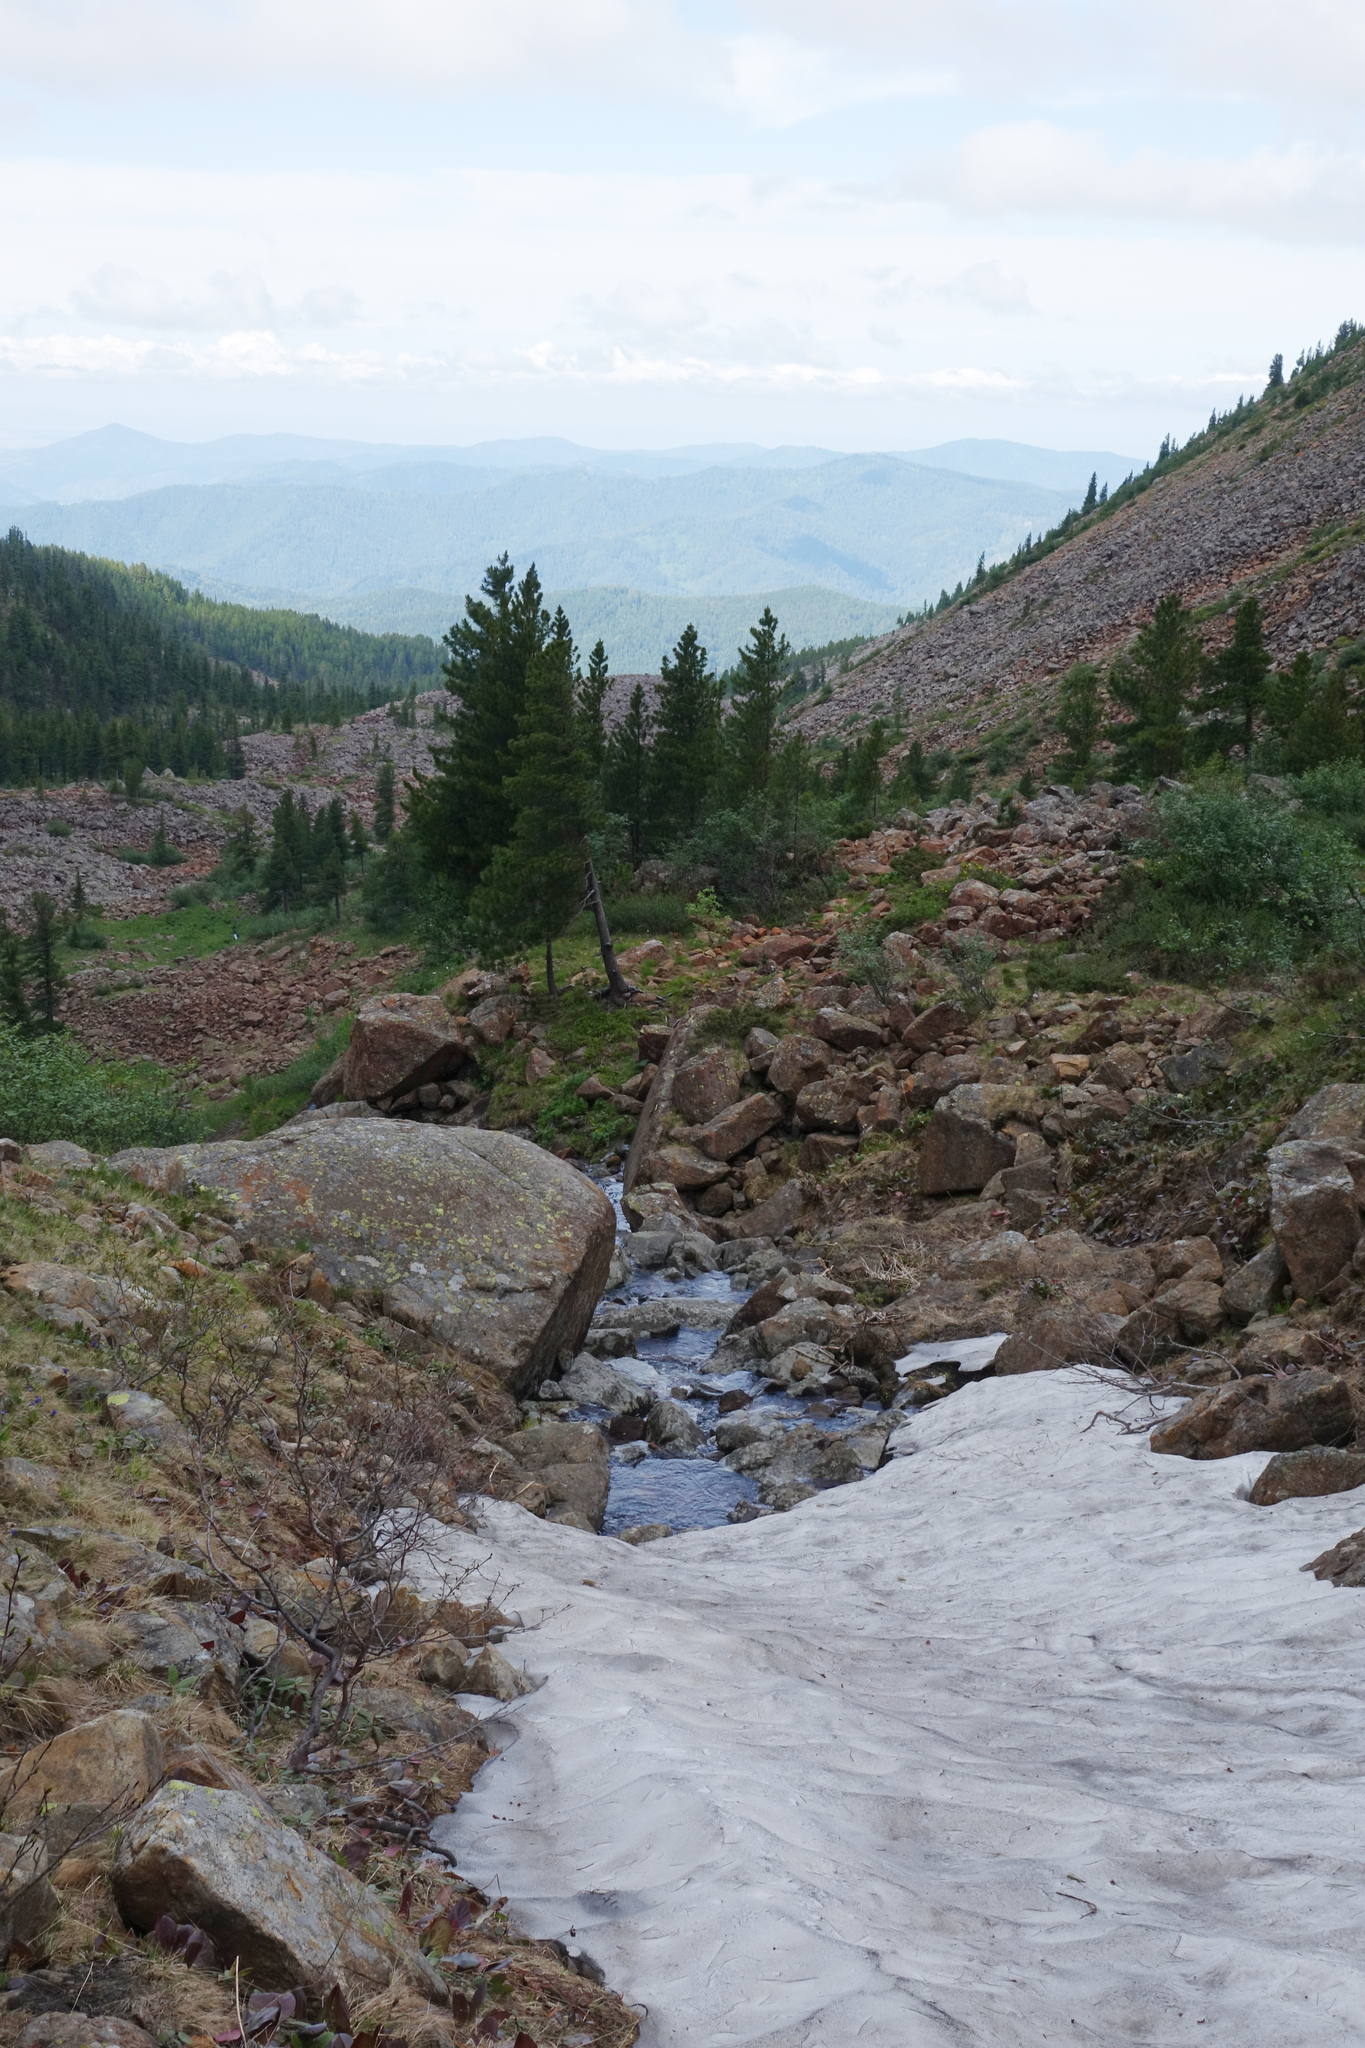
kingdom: Plantae
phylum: Tracheophyta
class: Pinopsida
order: Pinales
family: Pinaceae
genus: Pinus
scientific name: Pinus sibirica
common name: Siberian pine
